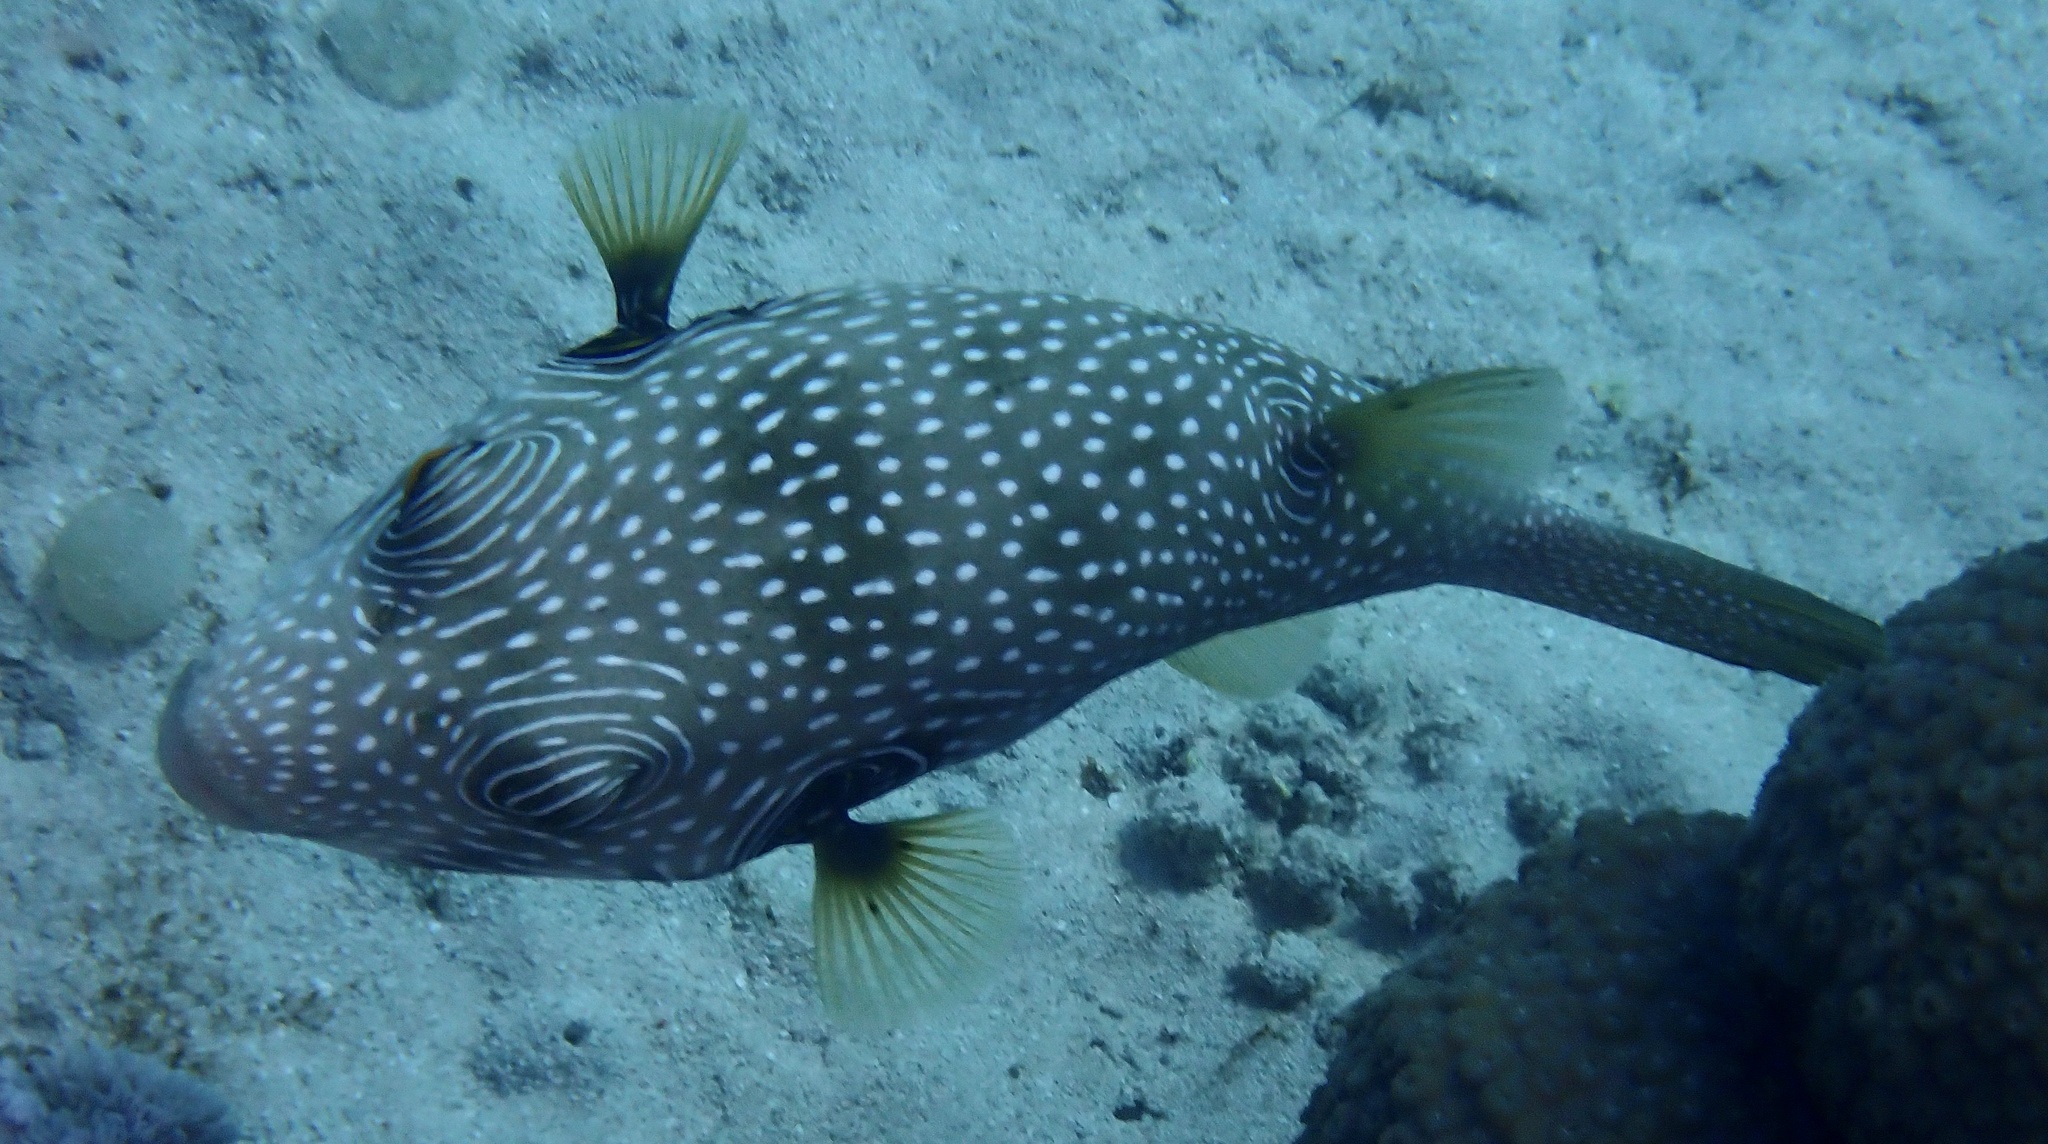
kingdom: Animalia
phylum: Chordata
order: Tetraodontiformes
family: Tetraodontidae
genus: Arothron
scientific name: Arothron hispidus
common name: Stripebelly puffer
